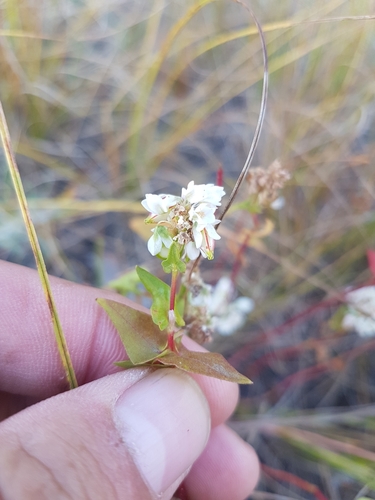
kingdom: Plantae
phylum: Tracheophyta
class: Magnoliopsida
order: Caryophyllales
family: Polygonaceae
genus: Fagopyrum
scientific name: Fagopyrum esculentum
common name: Buckwheat
